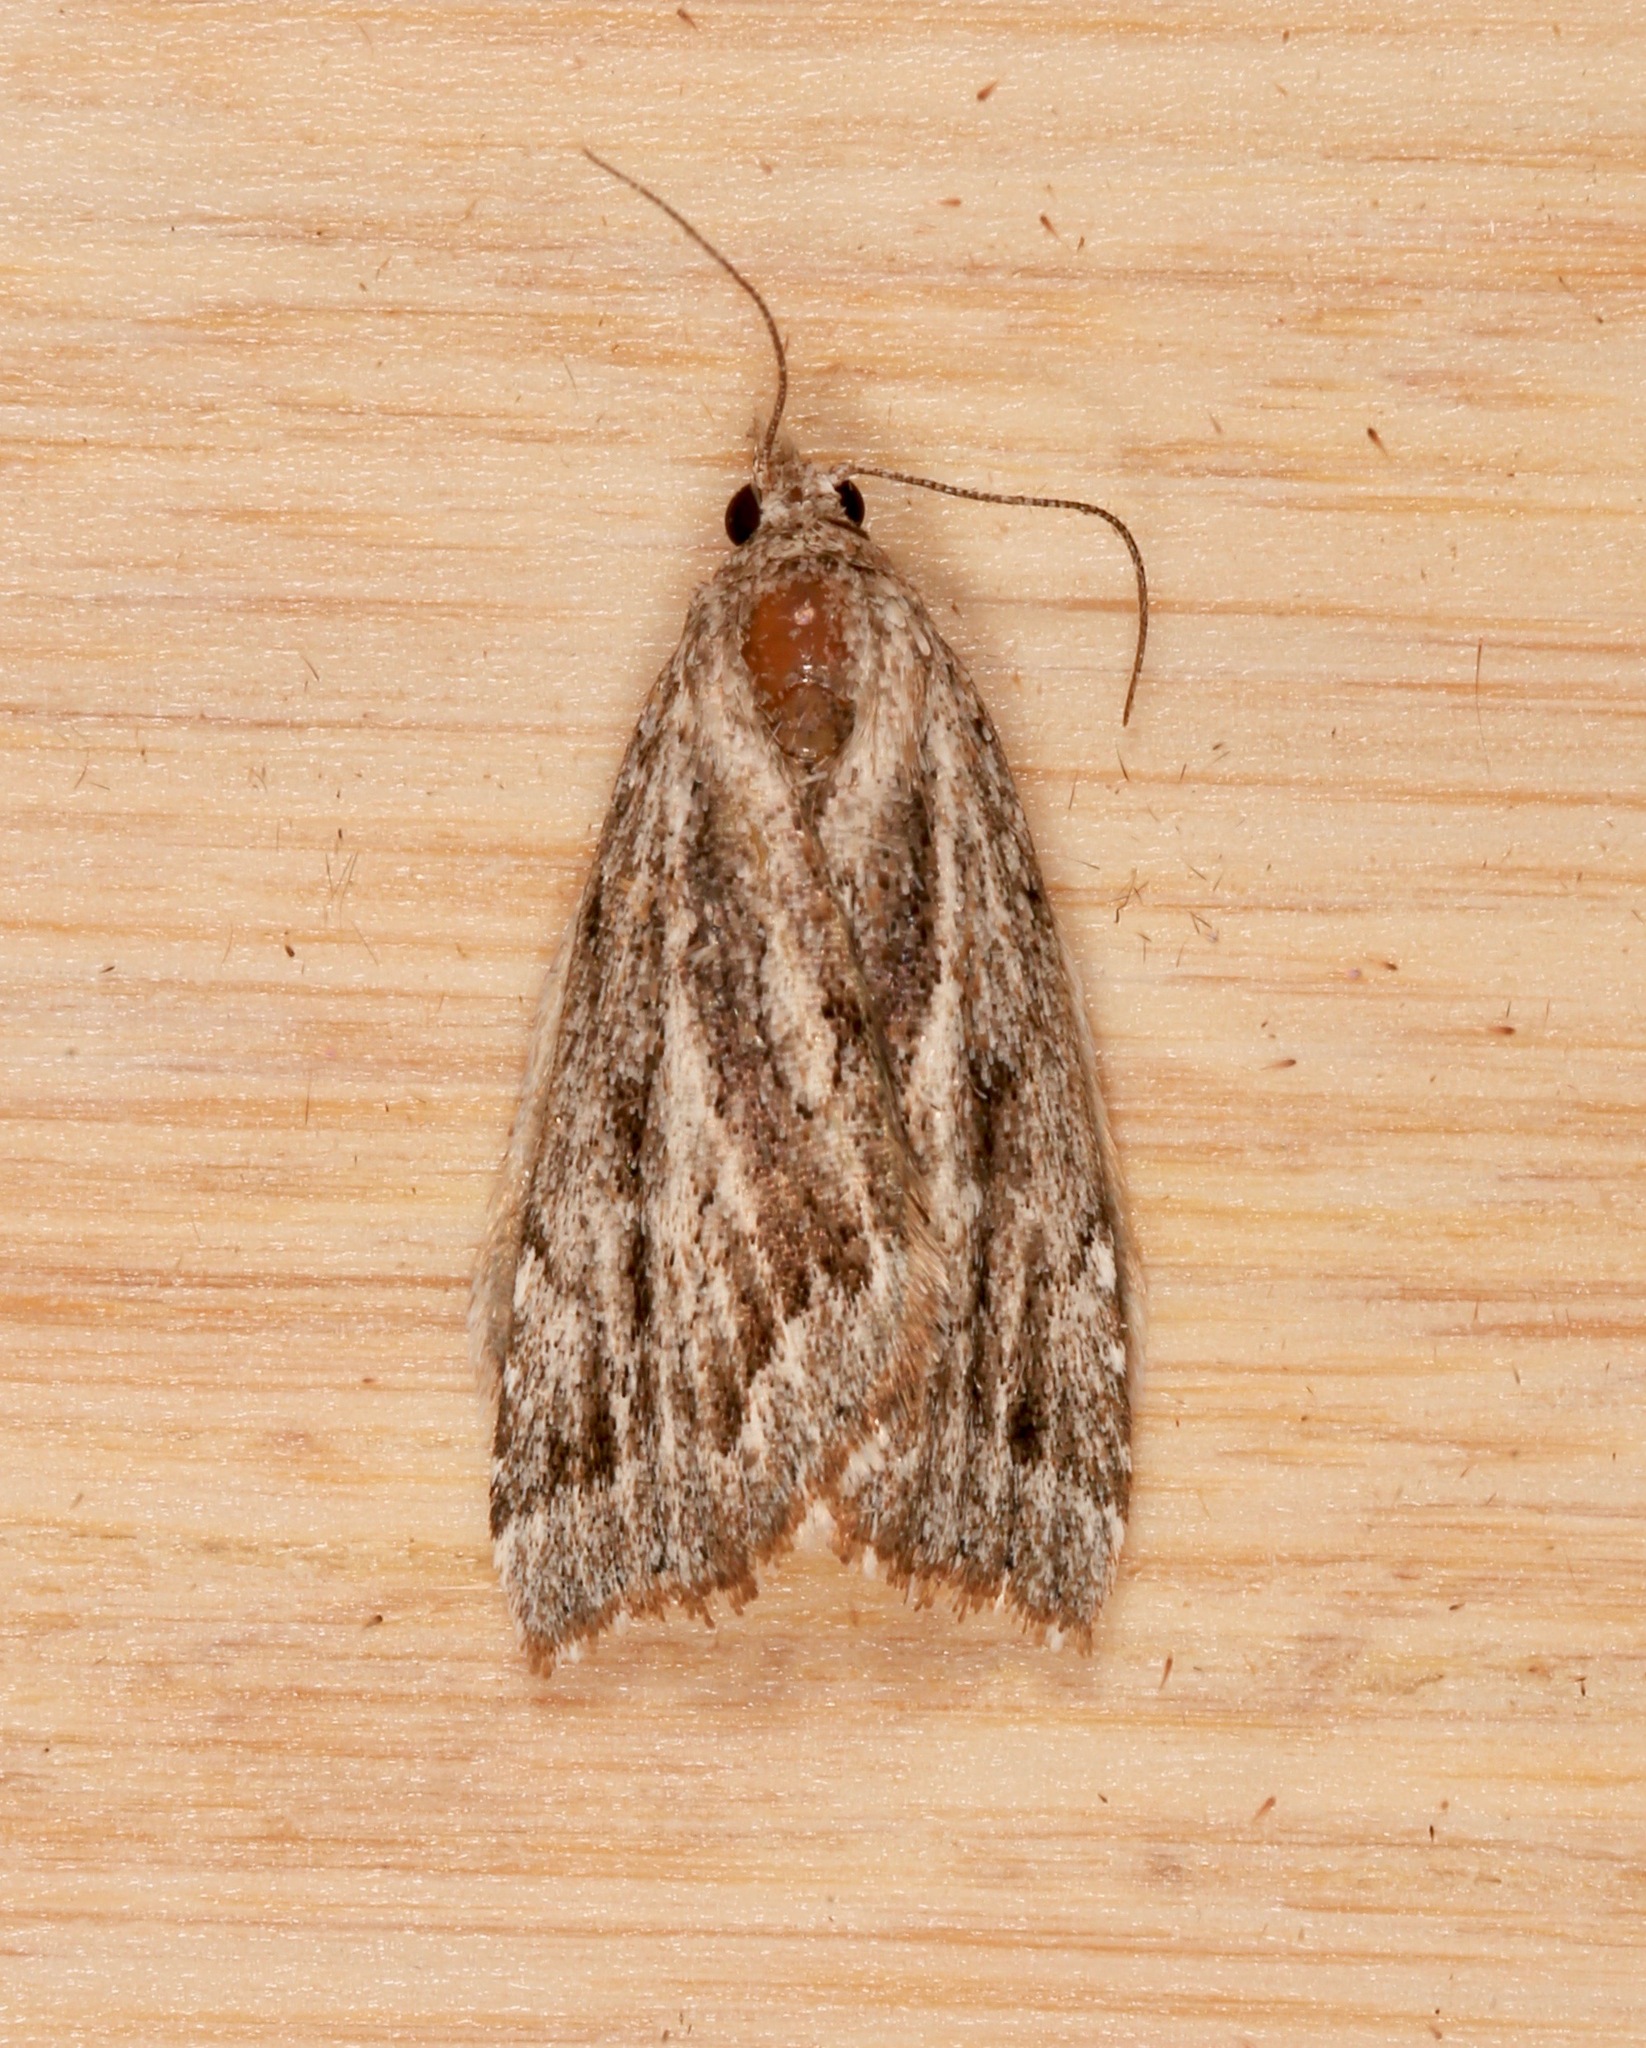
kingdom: Animalia
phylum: Arthropoda
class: Insecta
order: Lepidoptera
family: Erebidae
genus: Cutina
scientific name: Cutina albopunctella
